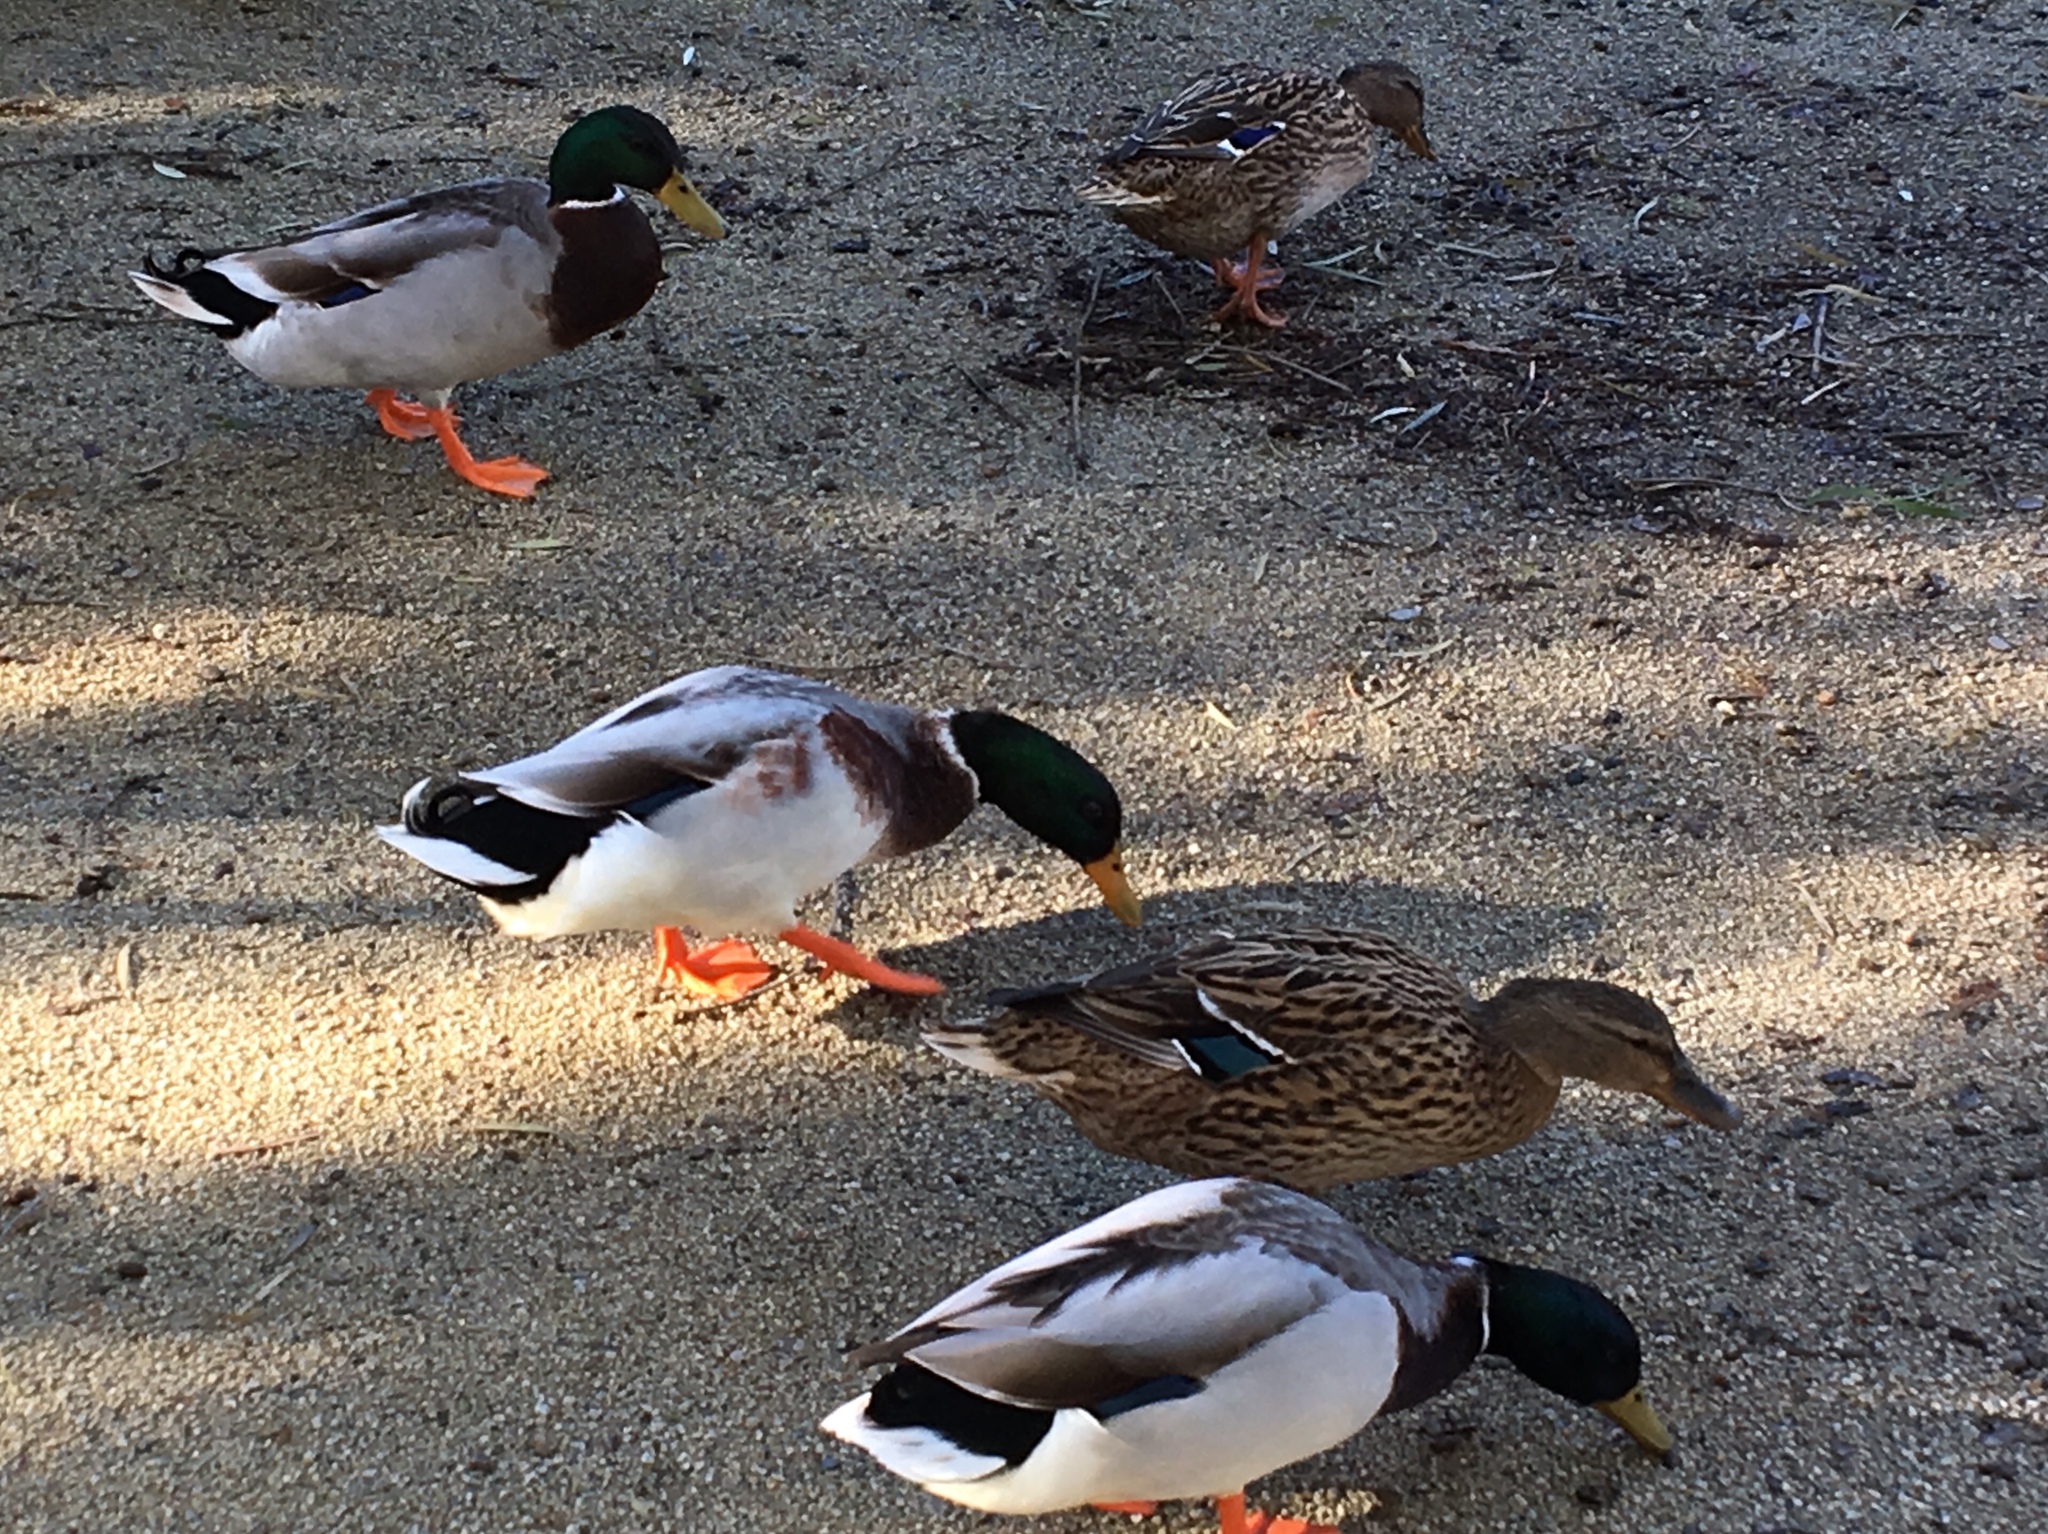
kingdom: Animalia
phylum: Chordata
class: Aves
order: Anseriformes
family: Anatidae
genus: Anas
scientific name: Anas platyrhynchos
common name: Mallard
